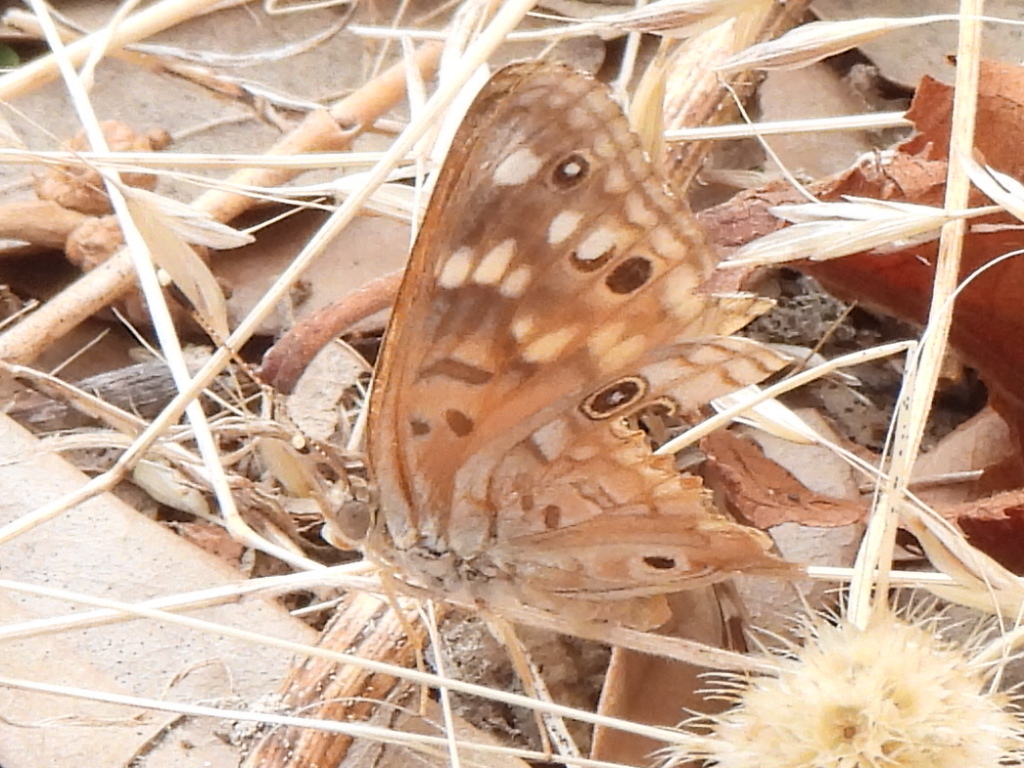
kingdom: Animalia
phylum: Arthropoda
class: Insecta
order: Lepidoptera
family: Nymphalidae
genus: Asterocampa
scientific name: Asterocampa celtis
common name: Hackberry emperor
